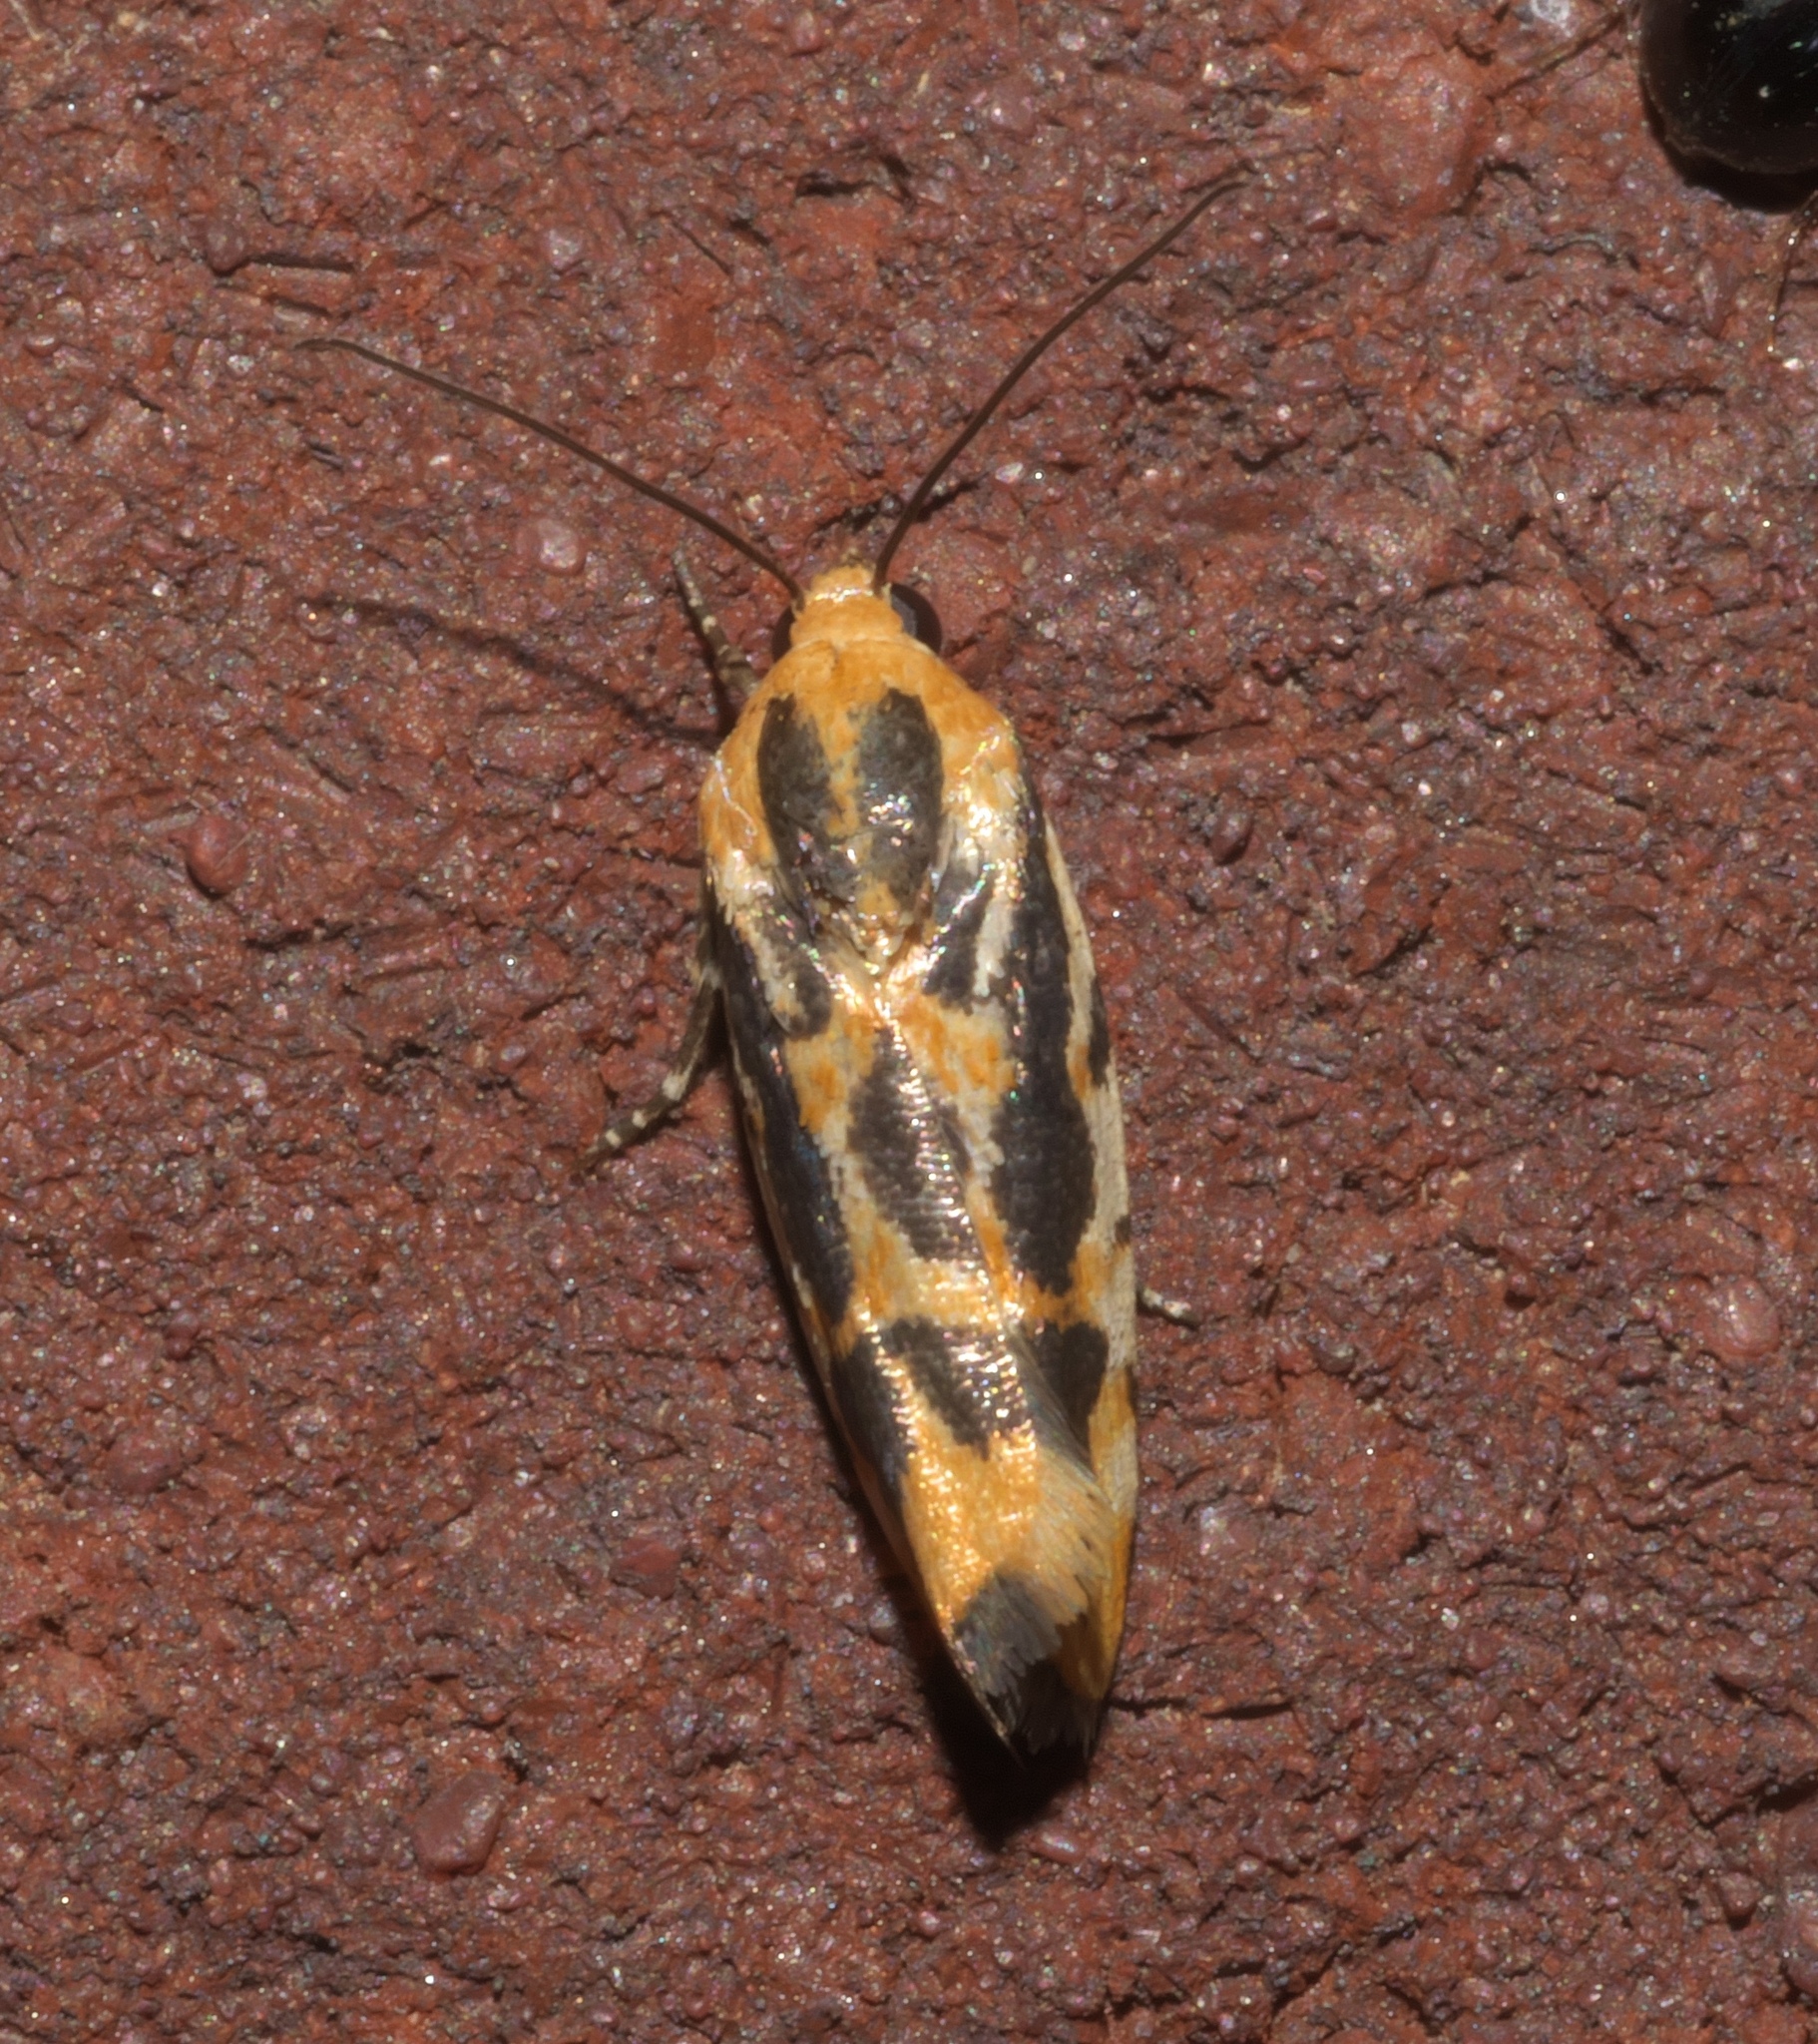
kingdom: Animalia
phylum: Arthropoda
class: Insecta
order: Lepidoptera
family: Noctuidae
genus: Acontia
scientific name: Acontia leo
